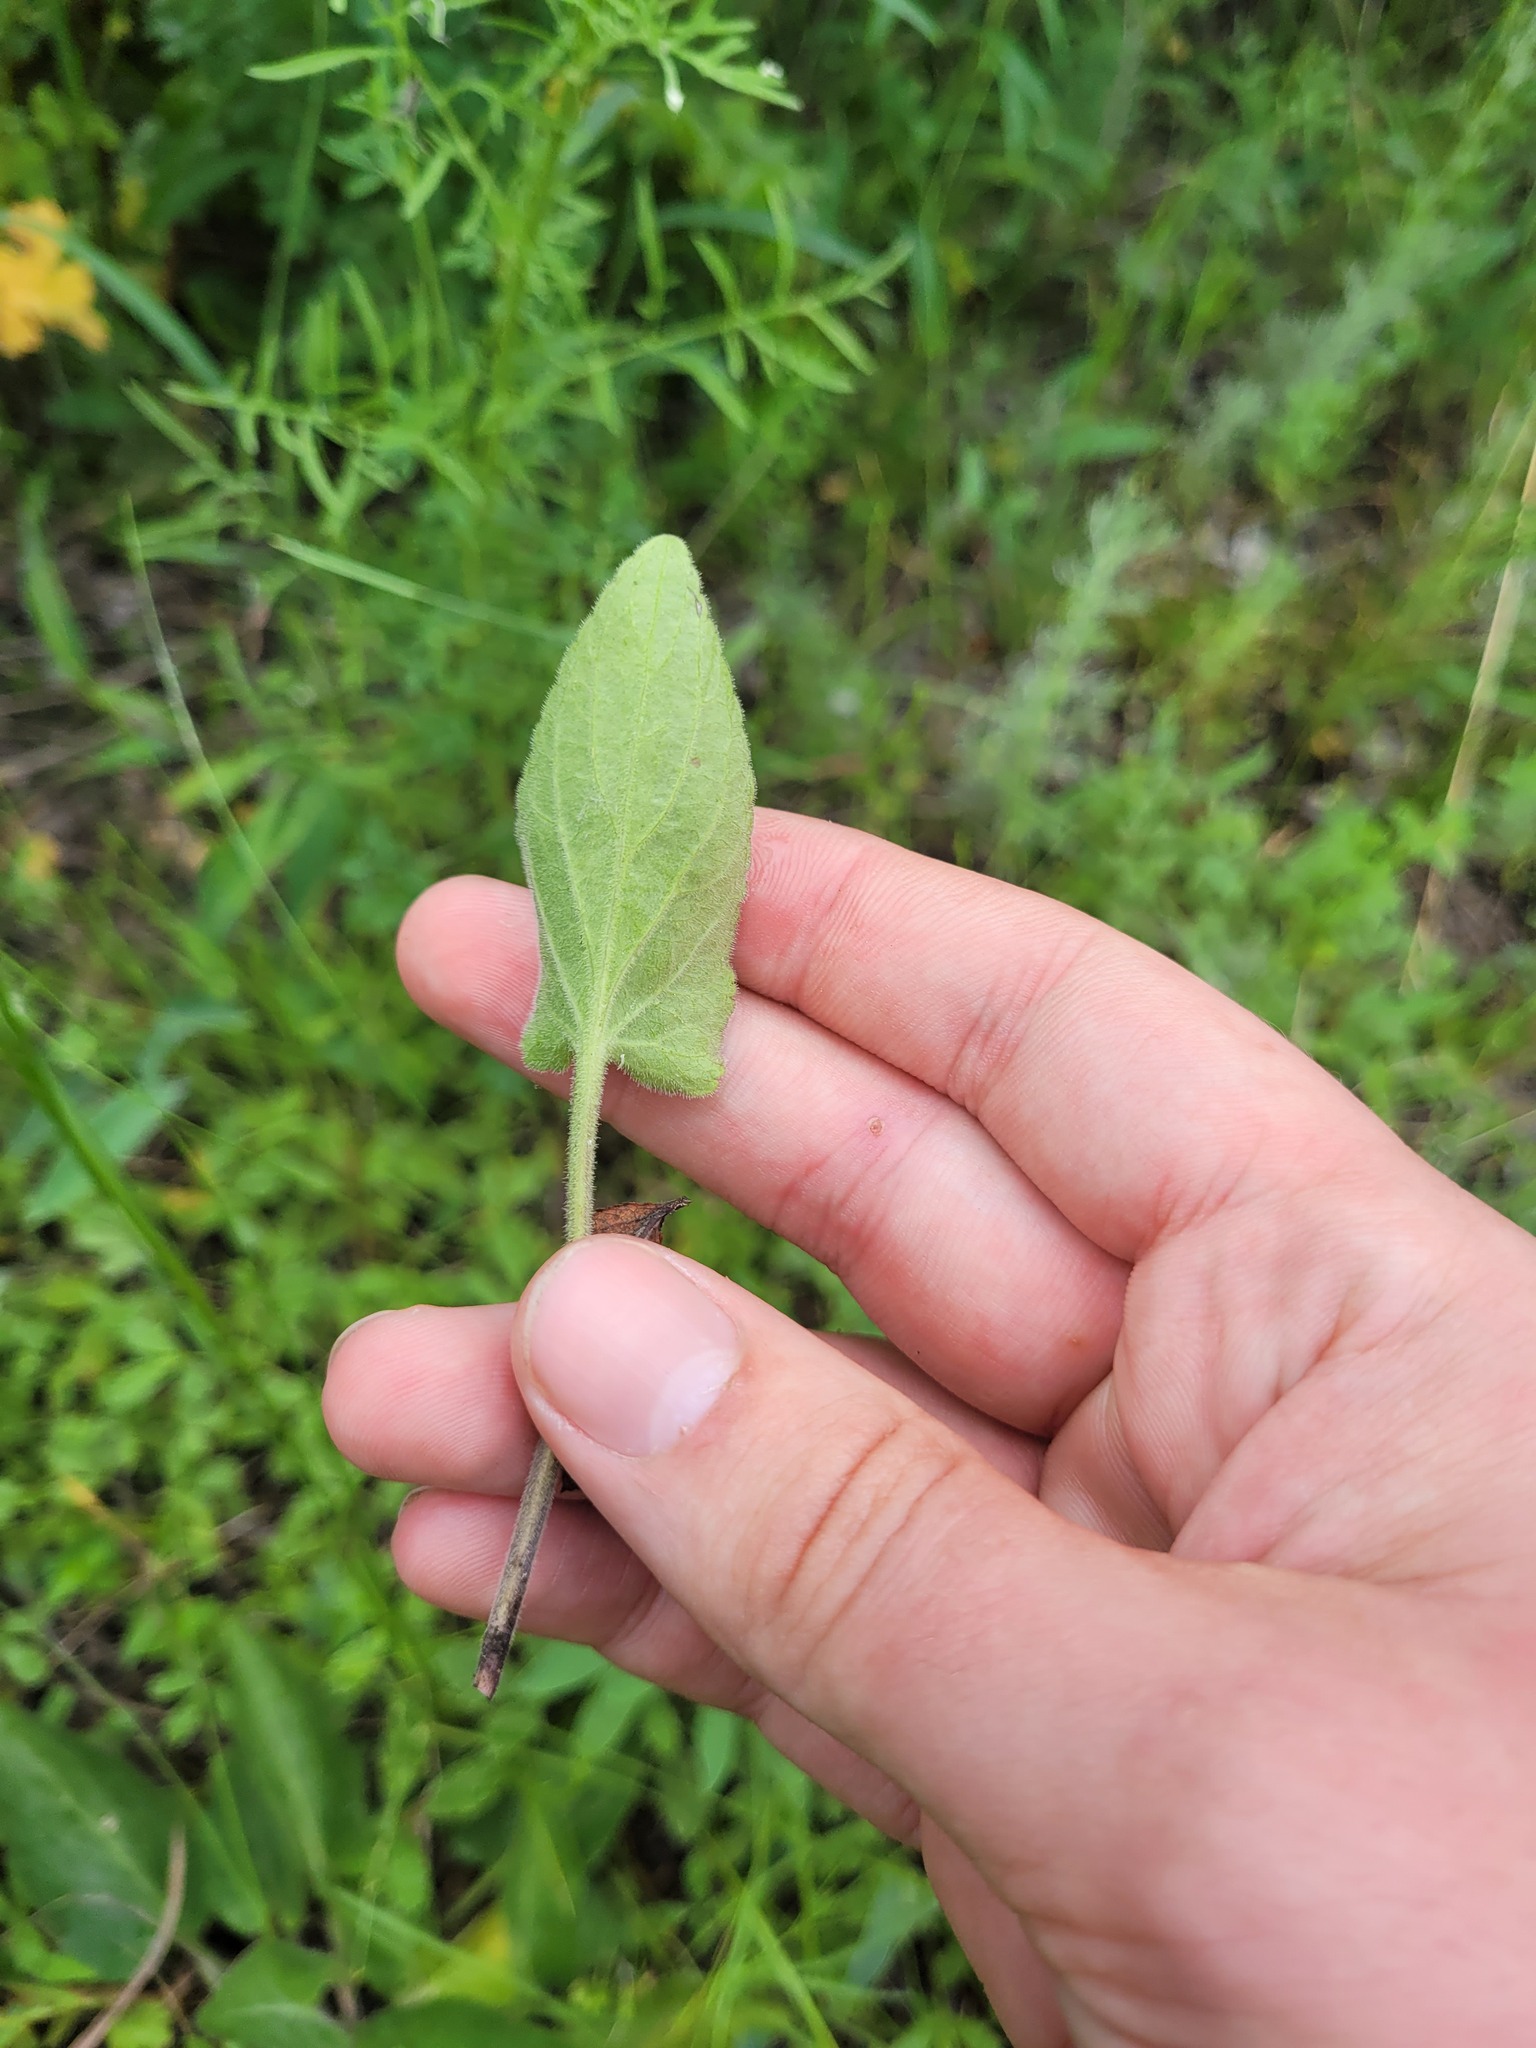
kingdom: Plantae
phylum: Tracheophyta
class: Magnoliopsida
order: Malpighiales
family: Violaceae
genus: Viola
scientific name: Viola ambigua
